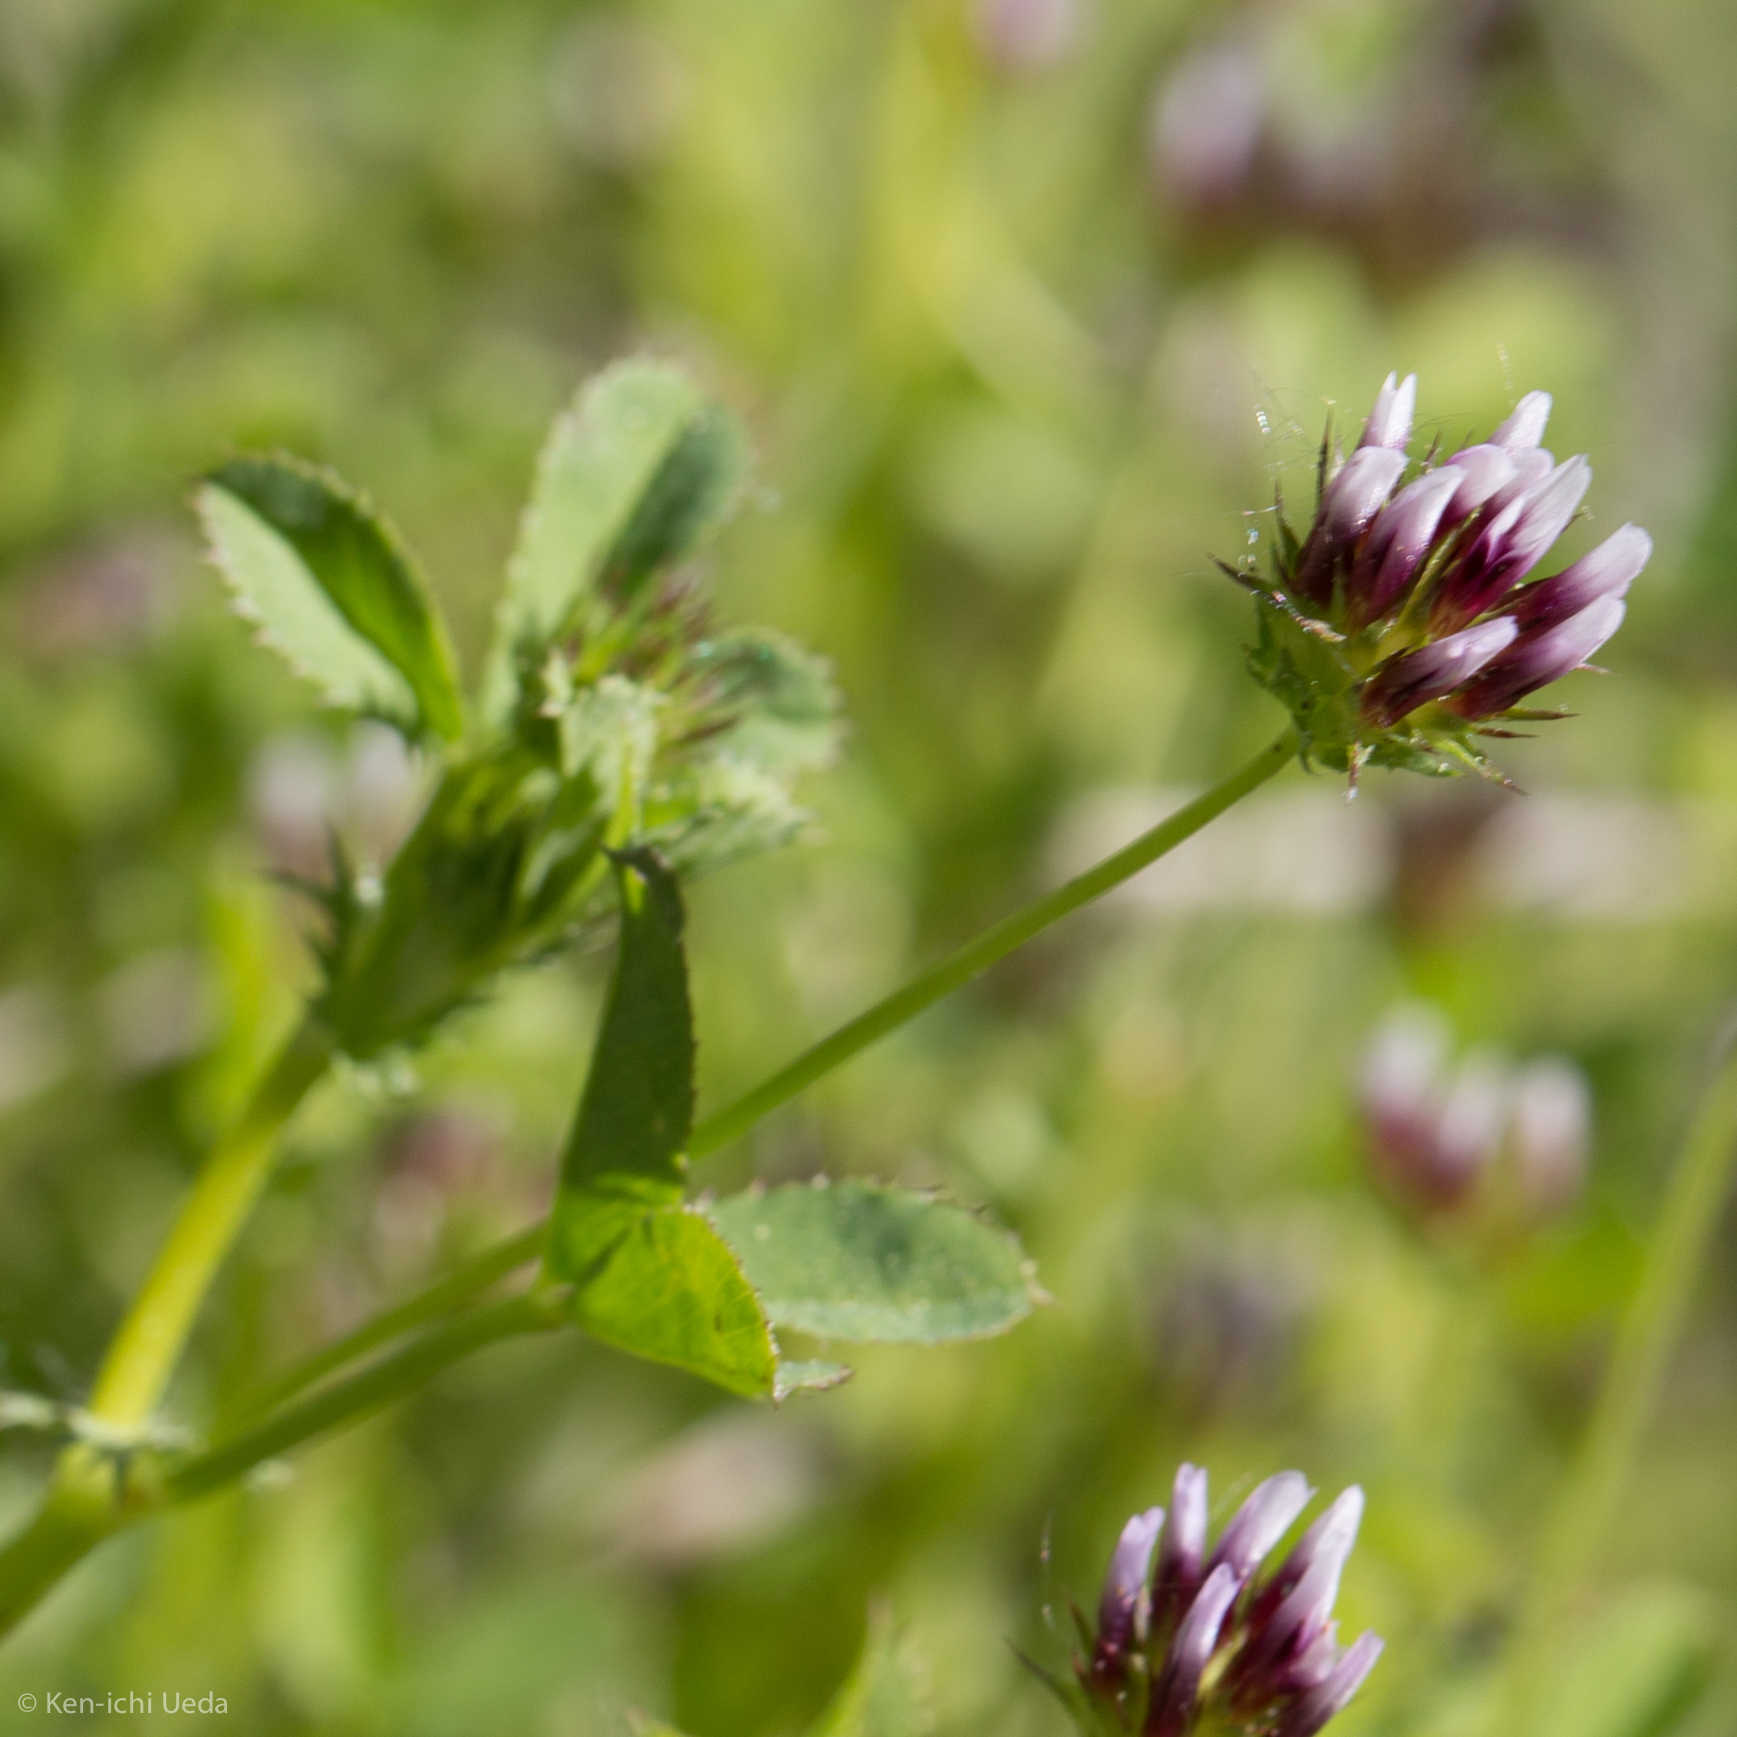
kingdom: Plantae
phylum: Tracheophyta
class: Magnoliopsida
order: Fabales
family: Fabaceae
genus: Trifolium
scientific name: Trifolium variegatum
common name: Whitetip clover
